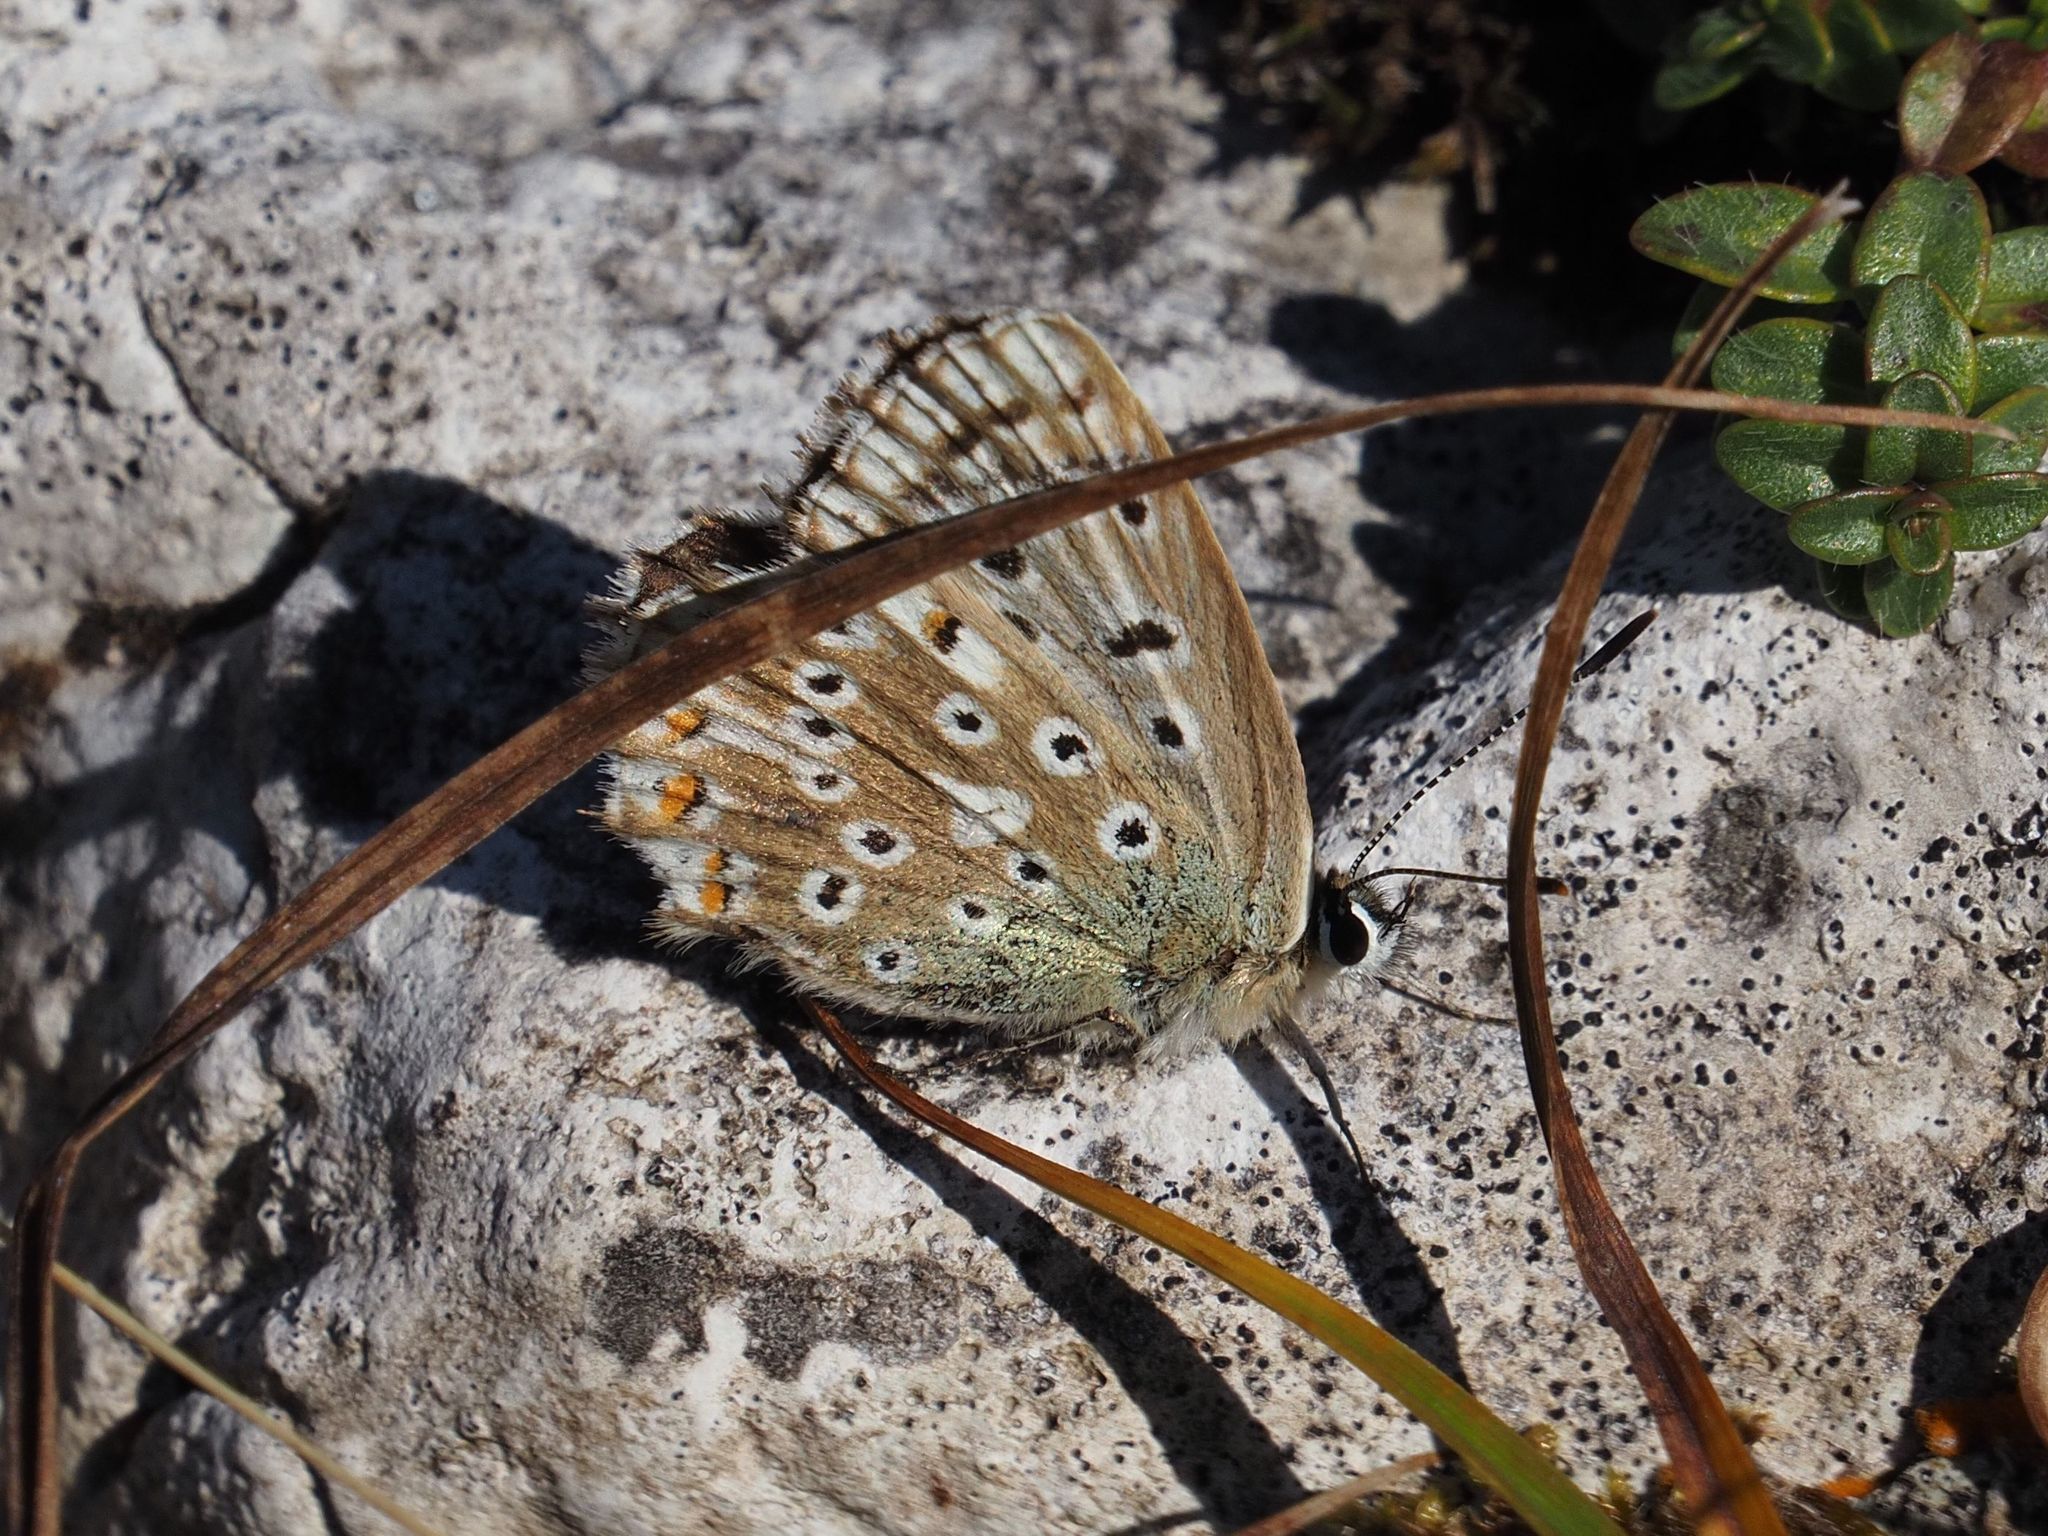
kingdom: Animalia
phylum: Arthropoda
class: Insecta
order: Lepidoptera
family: Lycaenidae
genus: Lysandra
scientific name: Lysandra coridon
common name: Chalkhill blue
